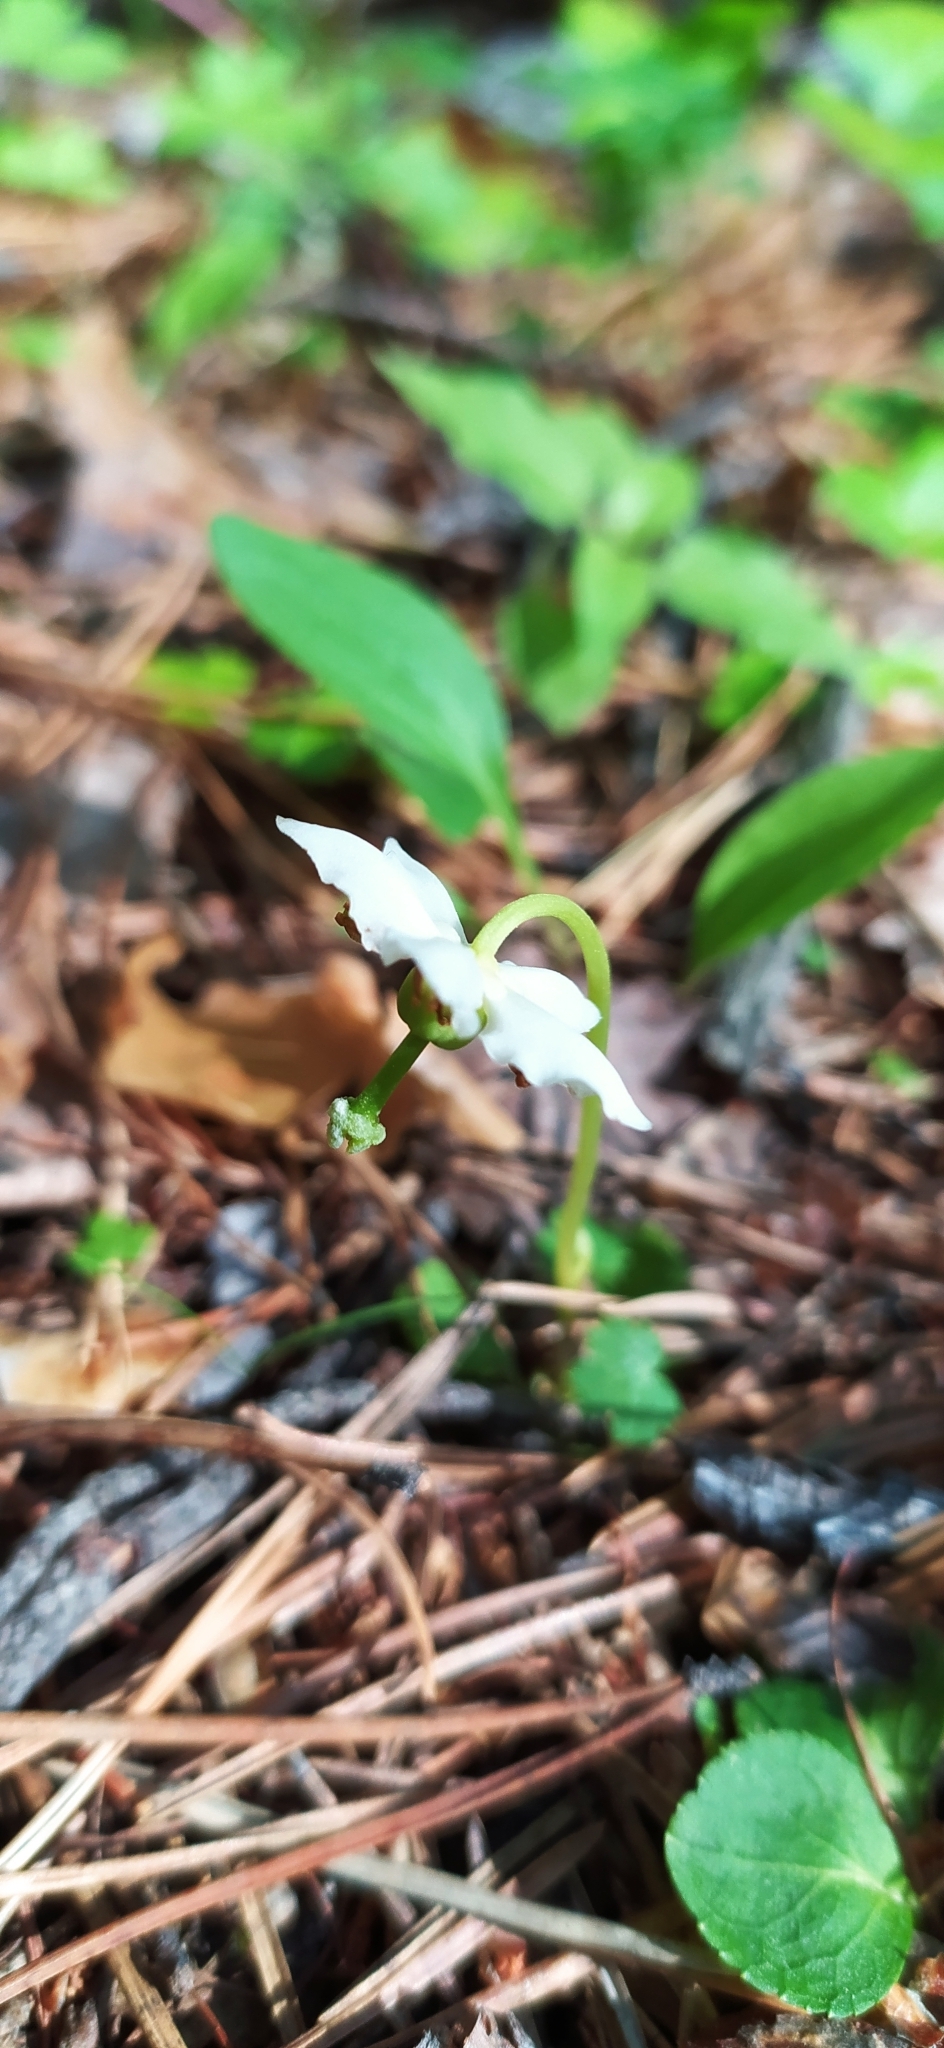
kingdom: Plantae
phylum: Tracheophyta
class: Magnoliopsida
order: Ericales
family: Ericaceae
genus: Moneses
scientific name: Moneses uniflora
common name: One-flowered wintergreen
